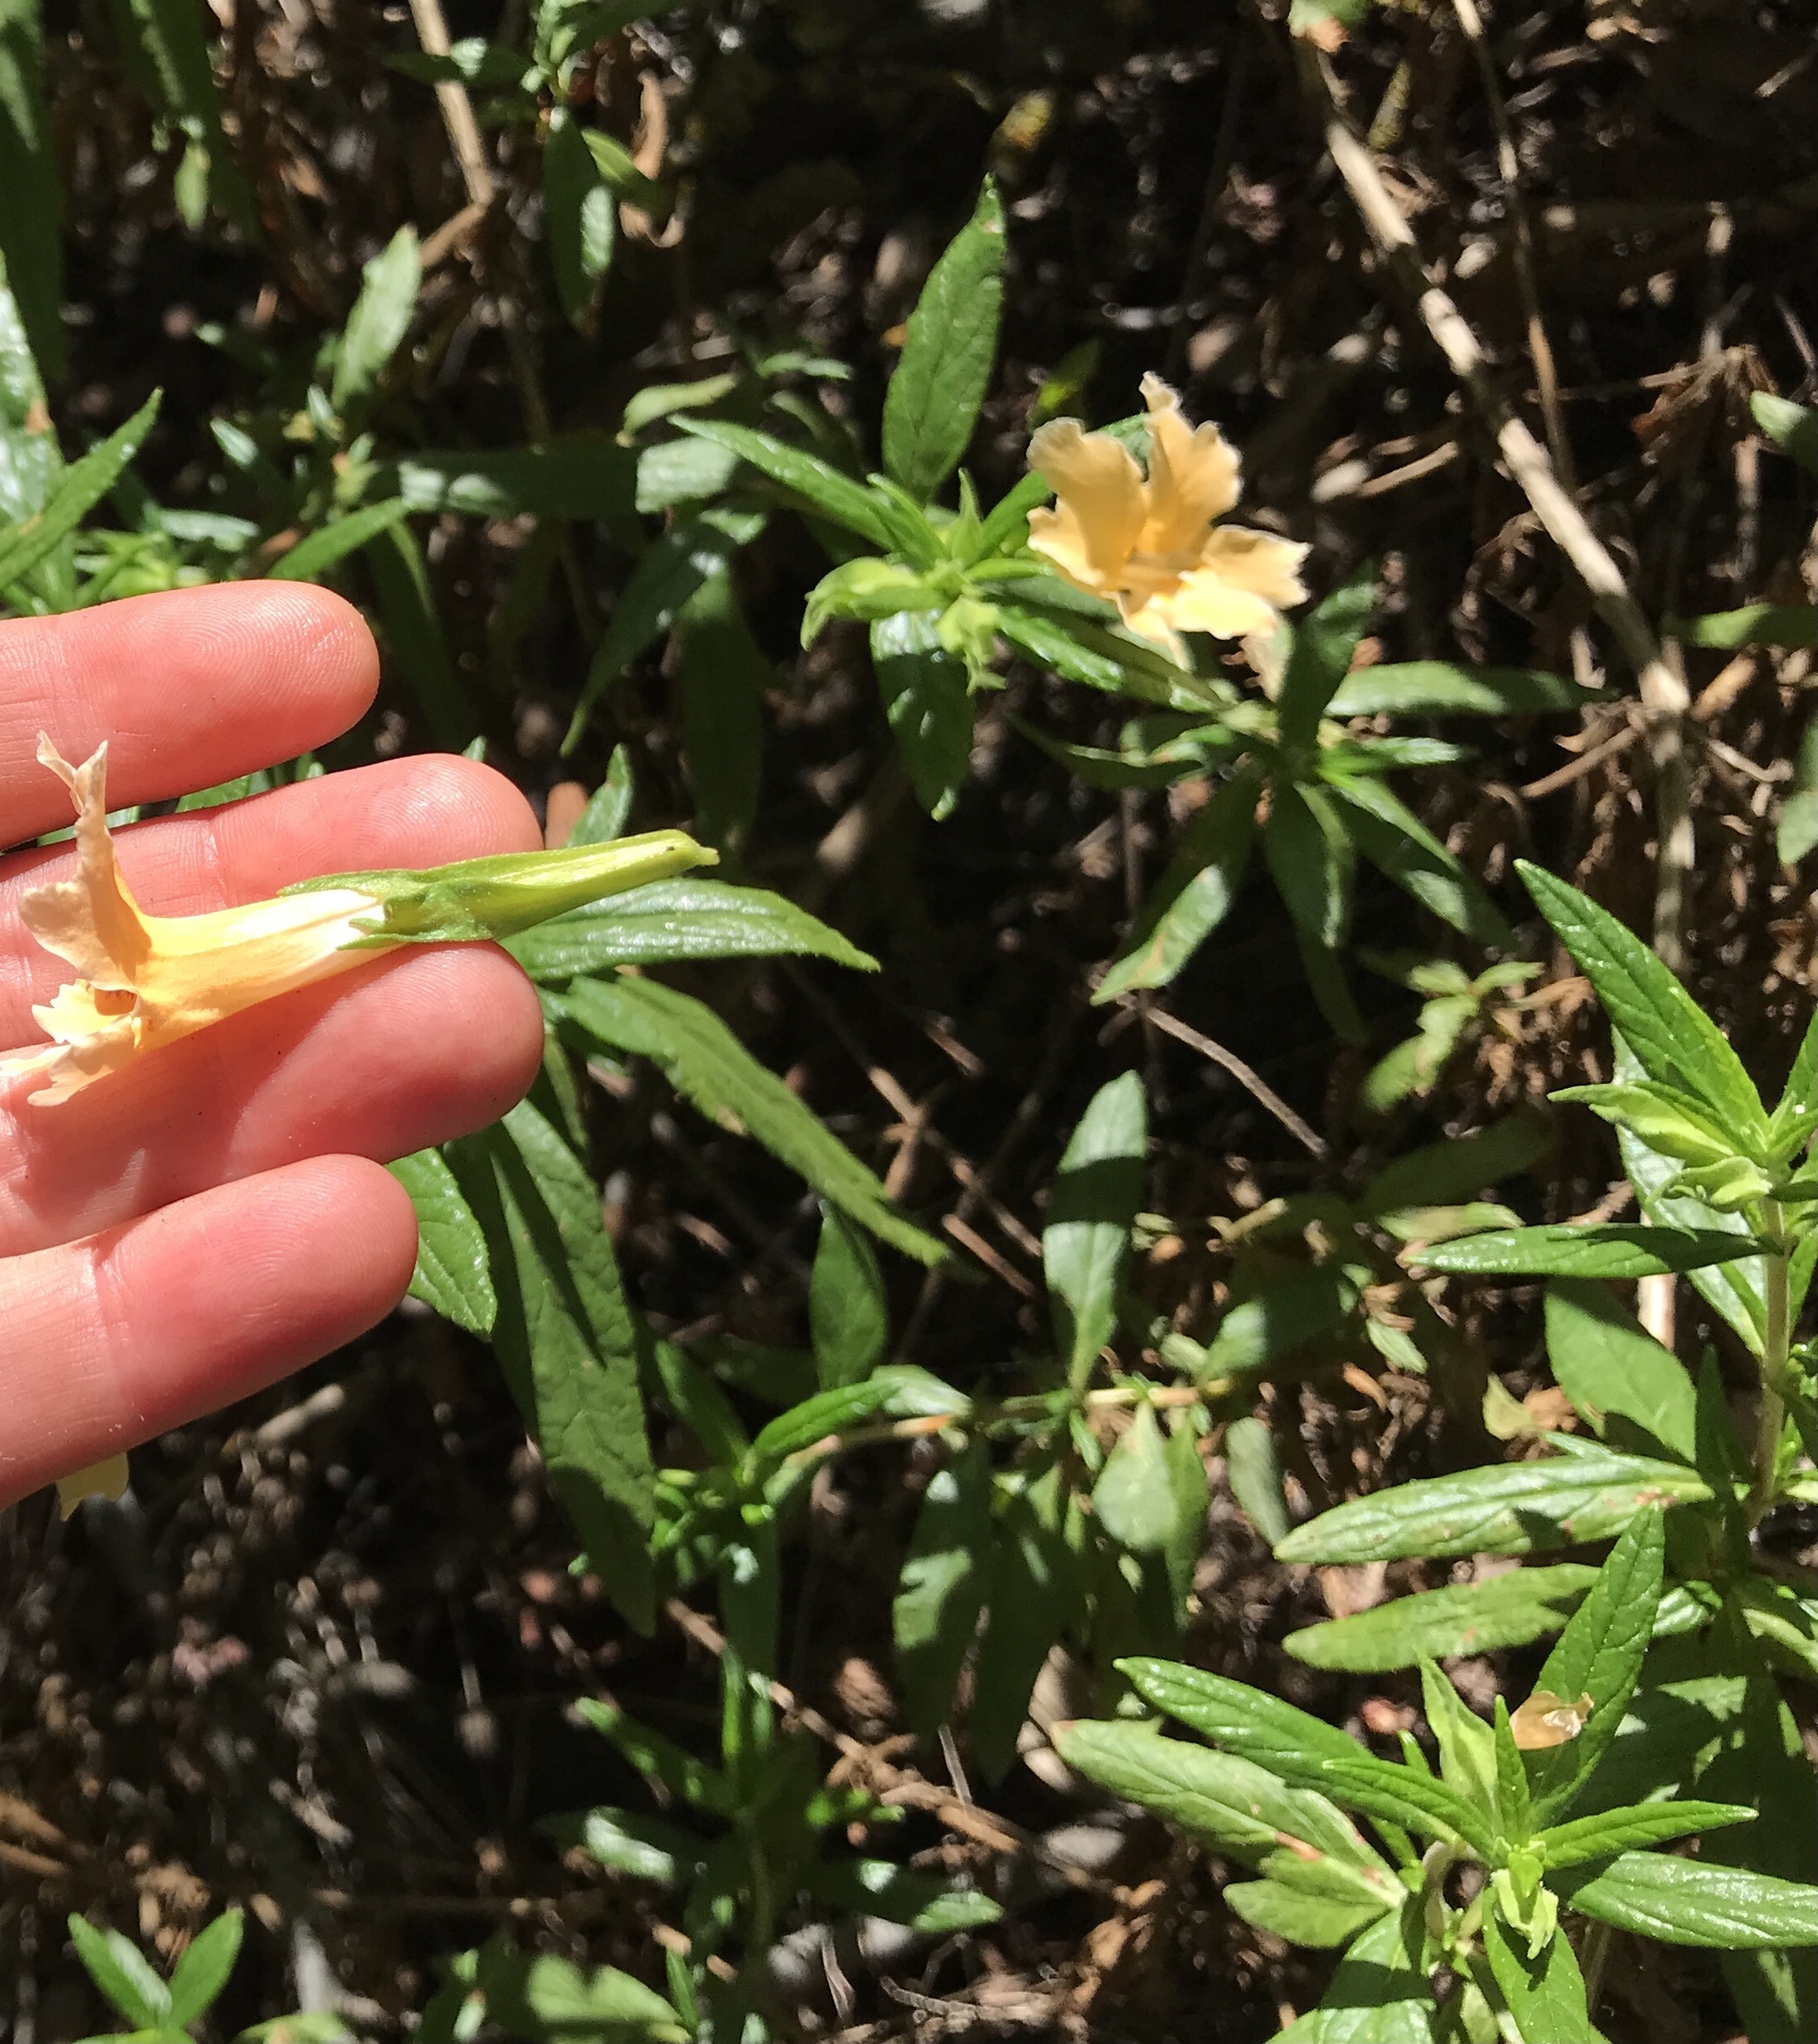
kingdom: Plantae
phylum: Tracheophyta
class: Magnoliopsida
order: Lamiales
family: Phrymaceae
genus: Diplacus
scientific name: Diplacus australis
